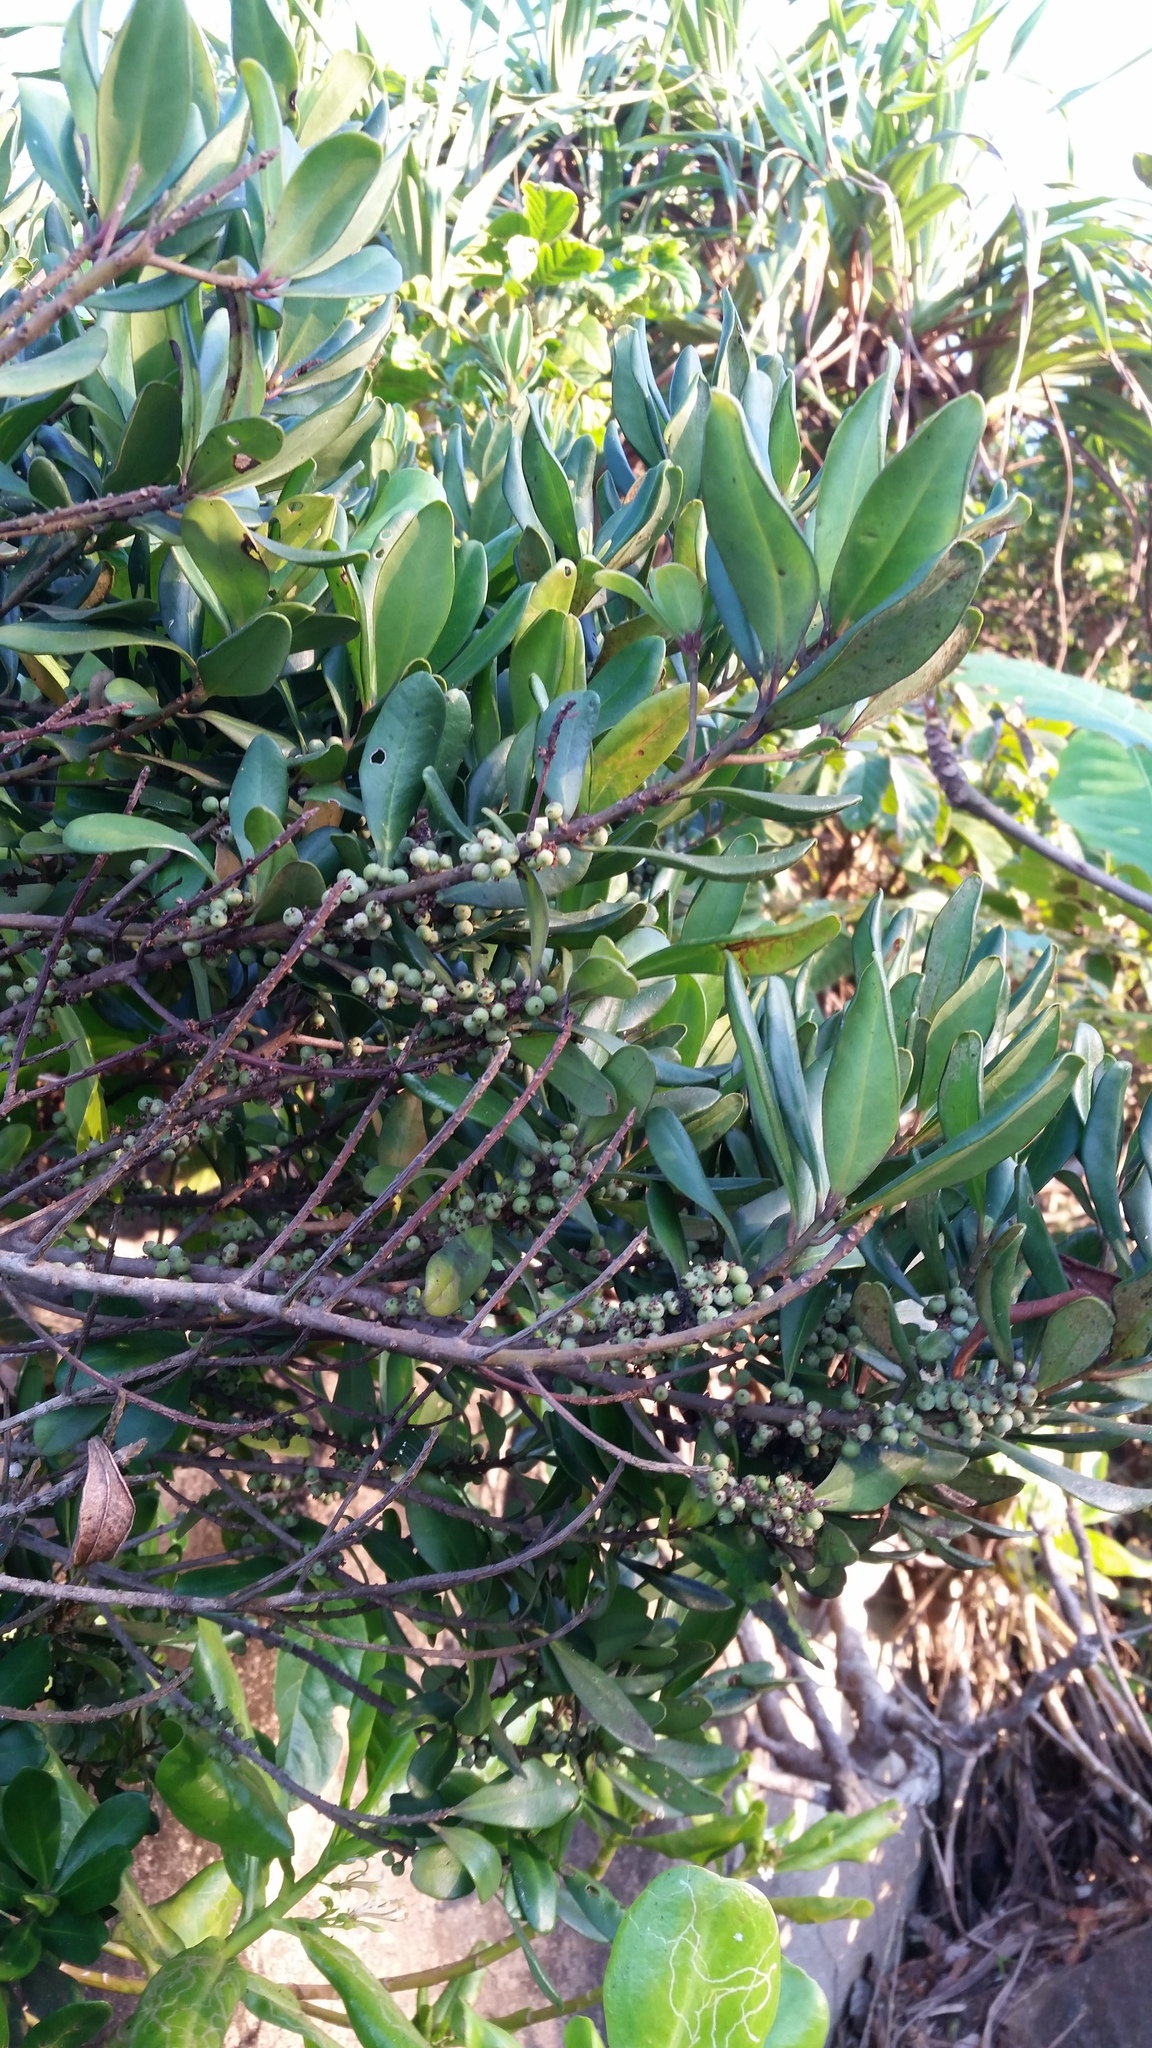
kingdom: Plantae
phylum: Tracheophyta
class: Magnoliopsida
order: Ericales
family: Primulaceae
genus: Myrsine
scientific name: Myrsine linearis
